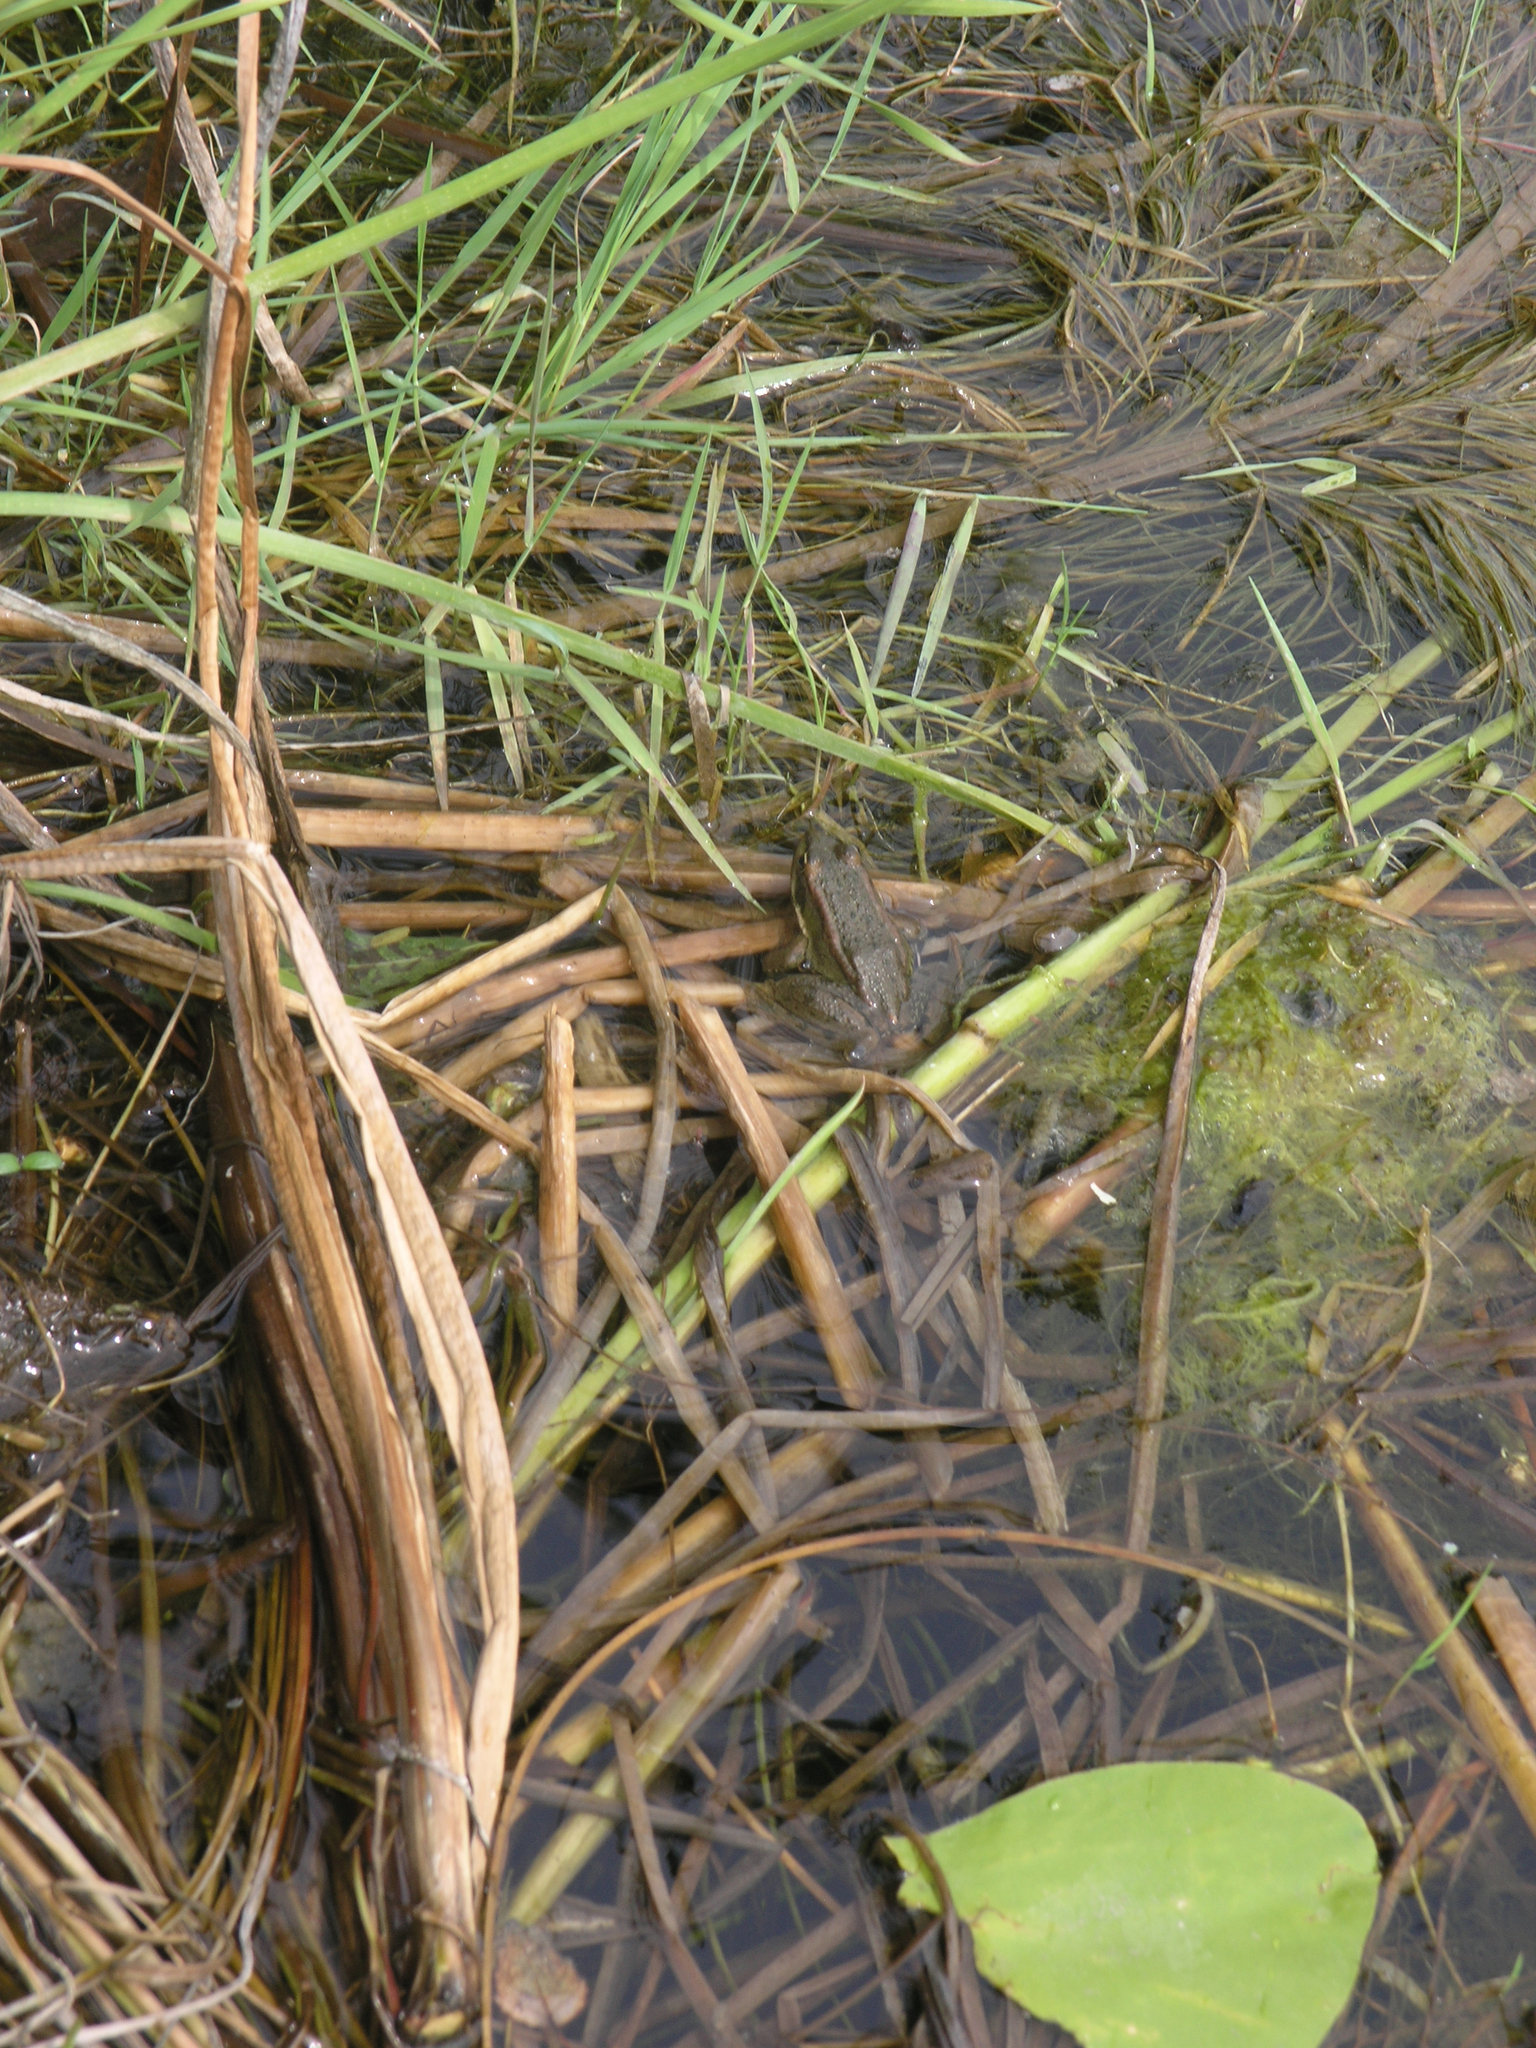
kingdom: Animalia
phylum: Chordata
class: Amphibia
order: Anura
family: Ranidae
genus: Pelophylax
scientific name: Pelophylax
